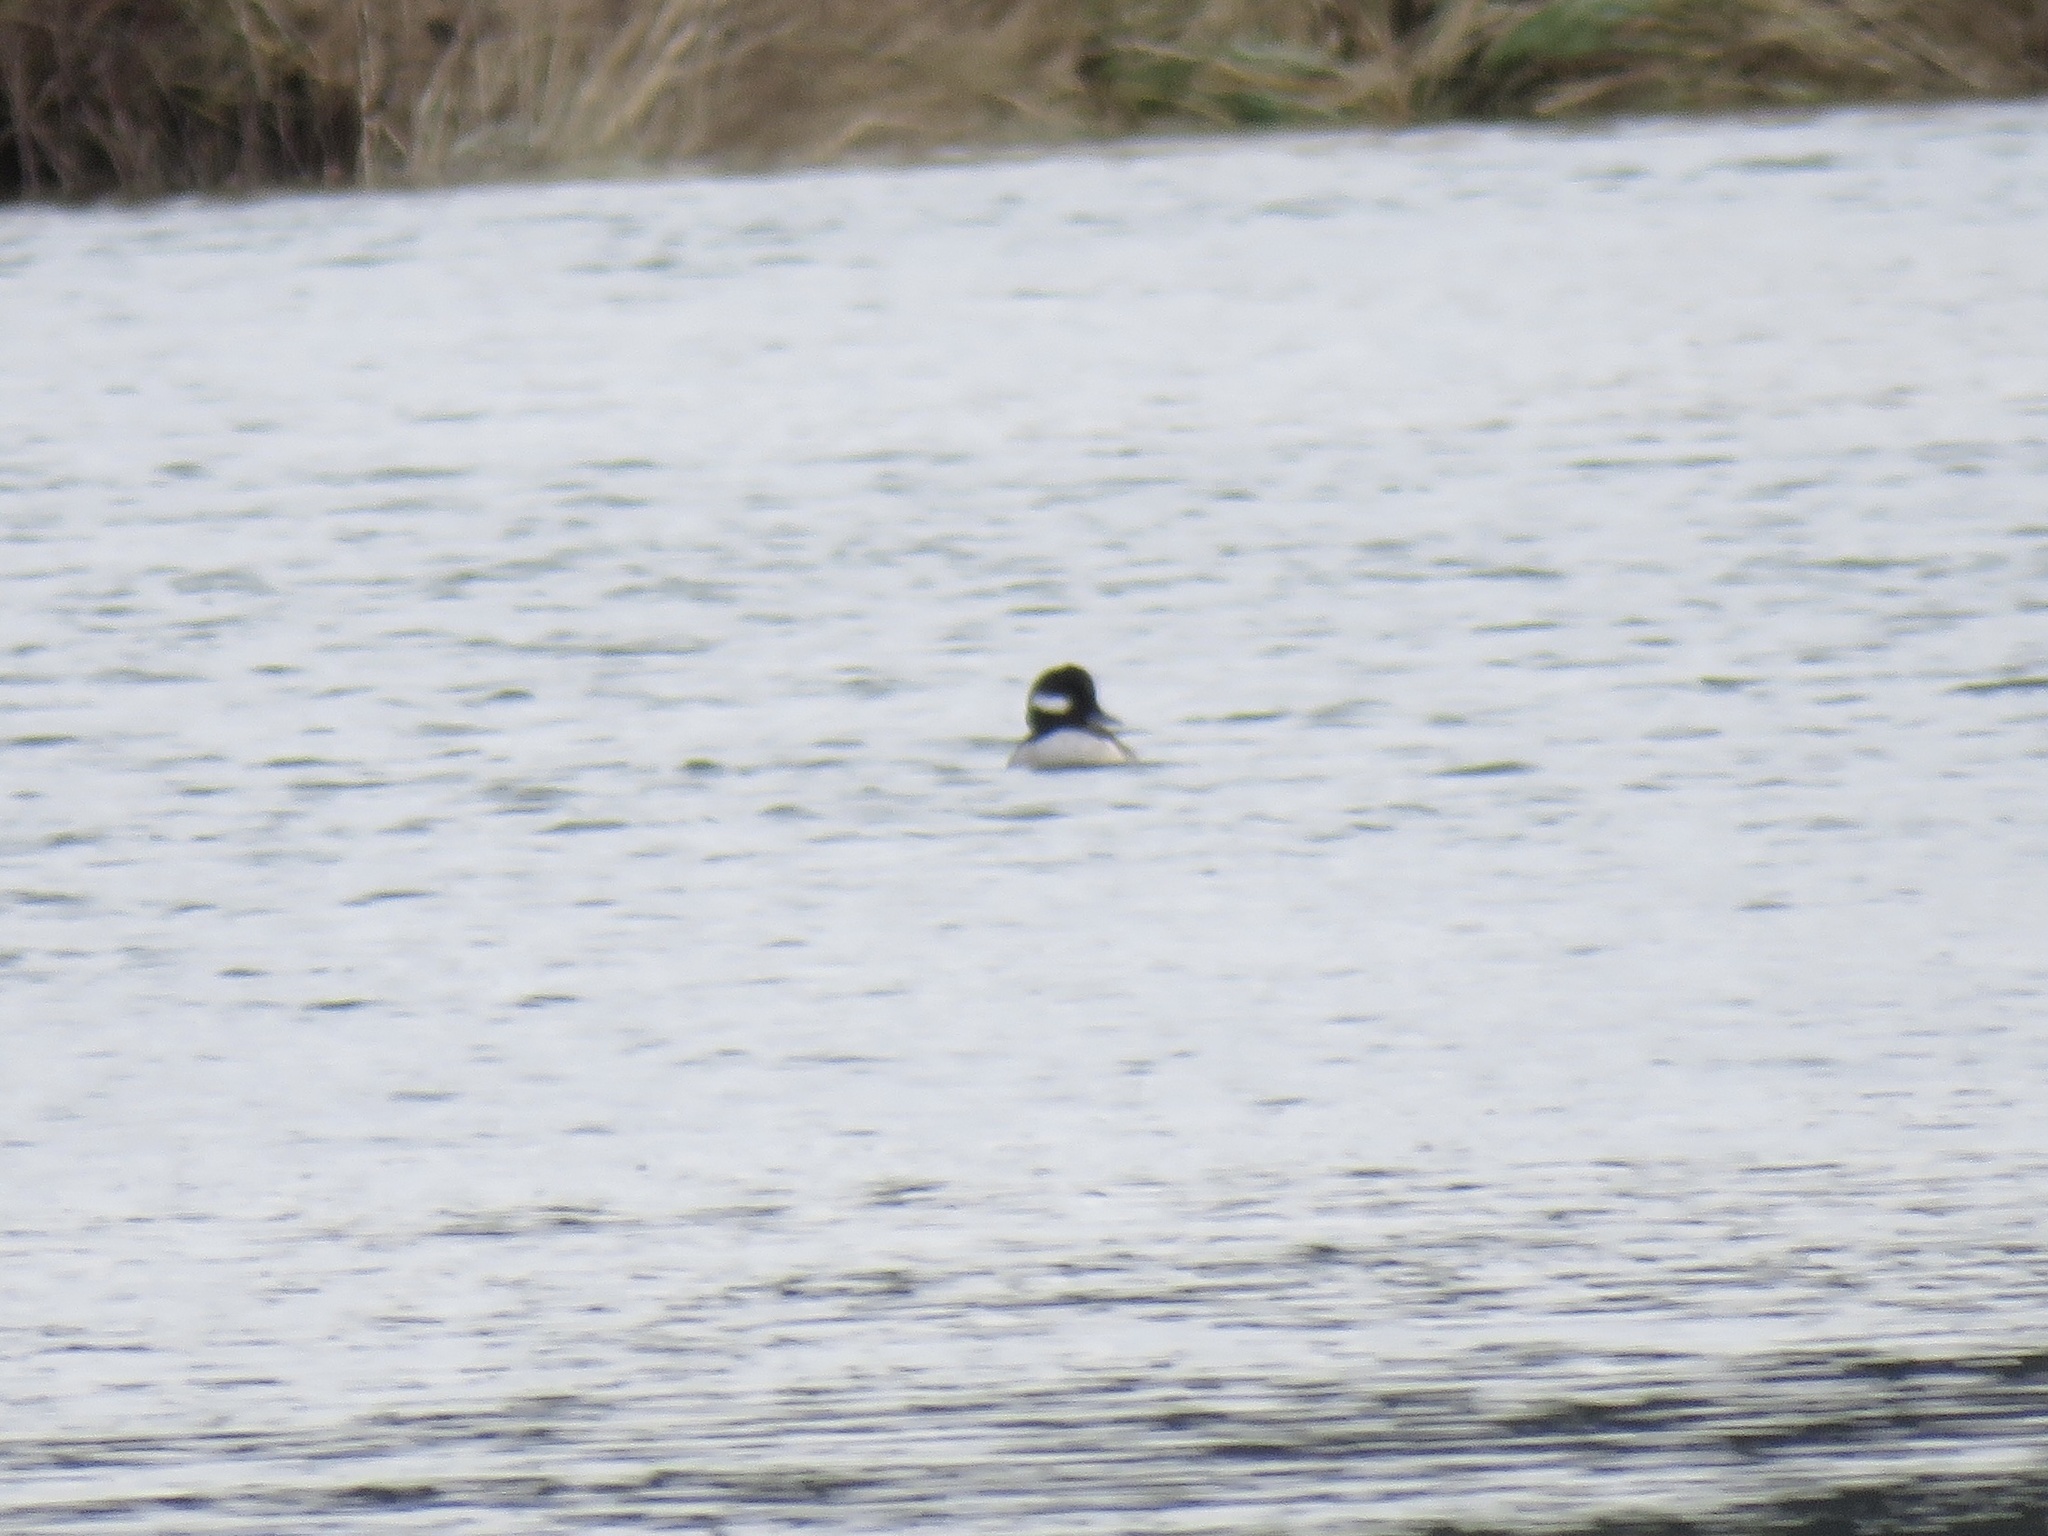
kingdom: Animalia
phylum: Chordata
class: Aves
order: Anseriformes
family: Anatidae
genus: Bucephala
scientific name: Bucephala albeola
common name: Bufflehead
